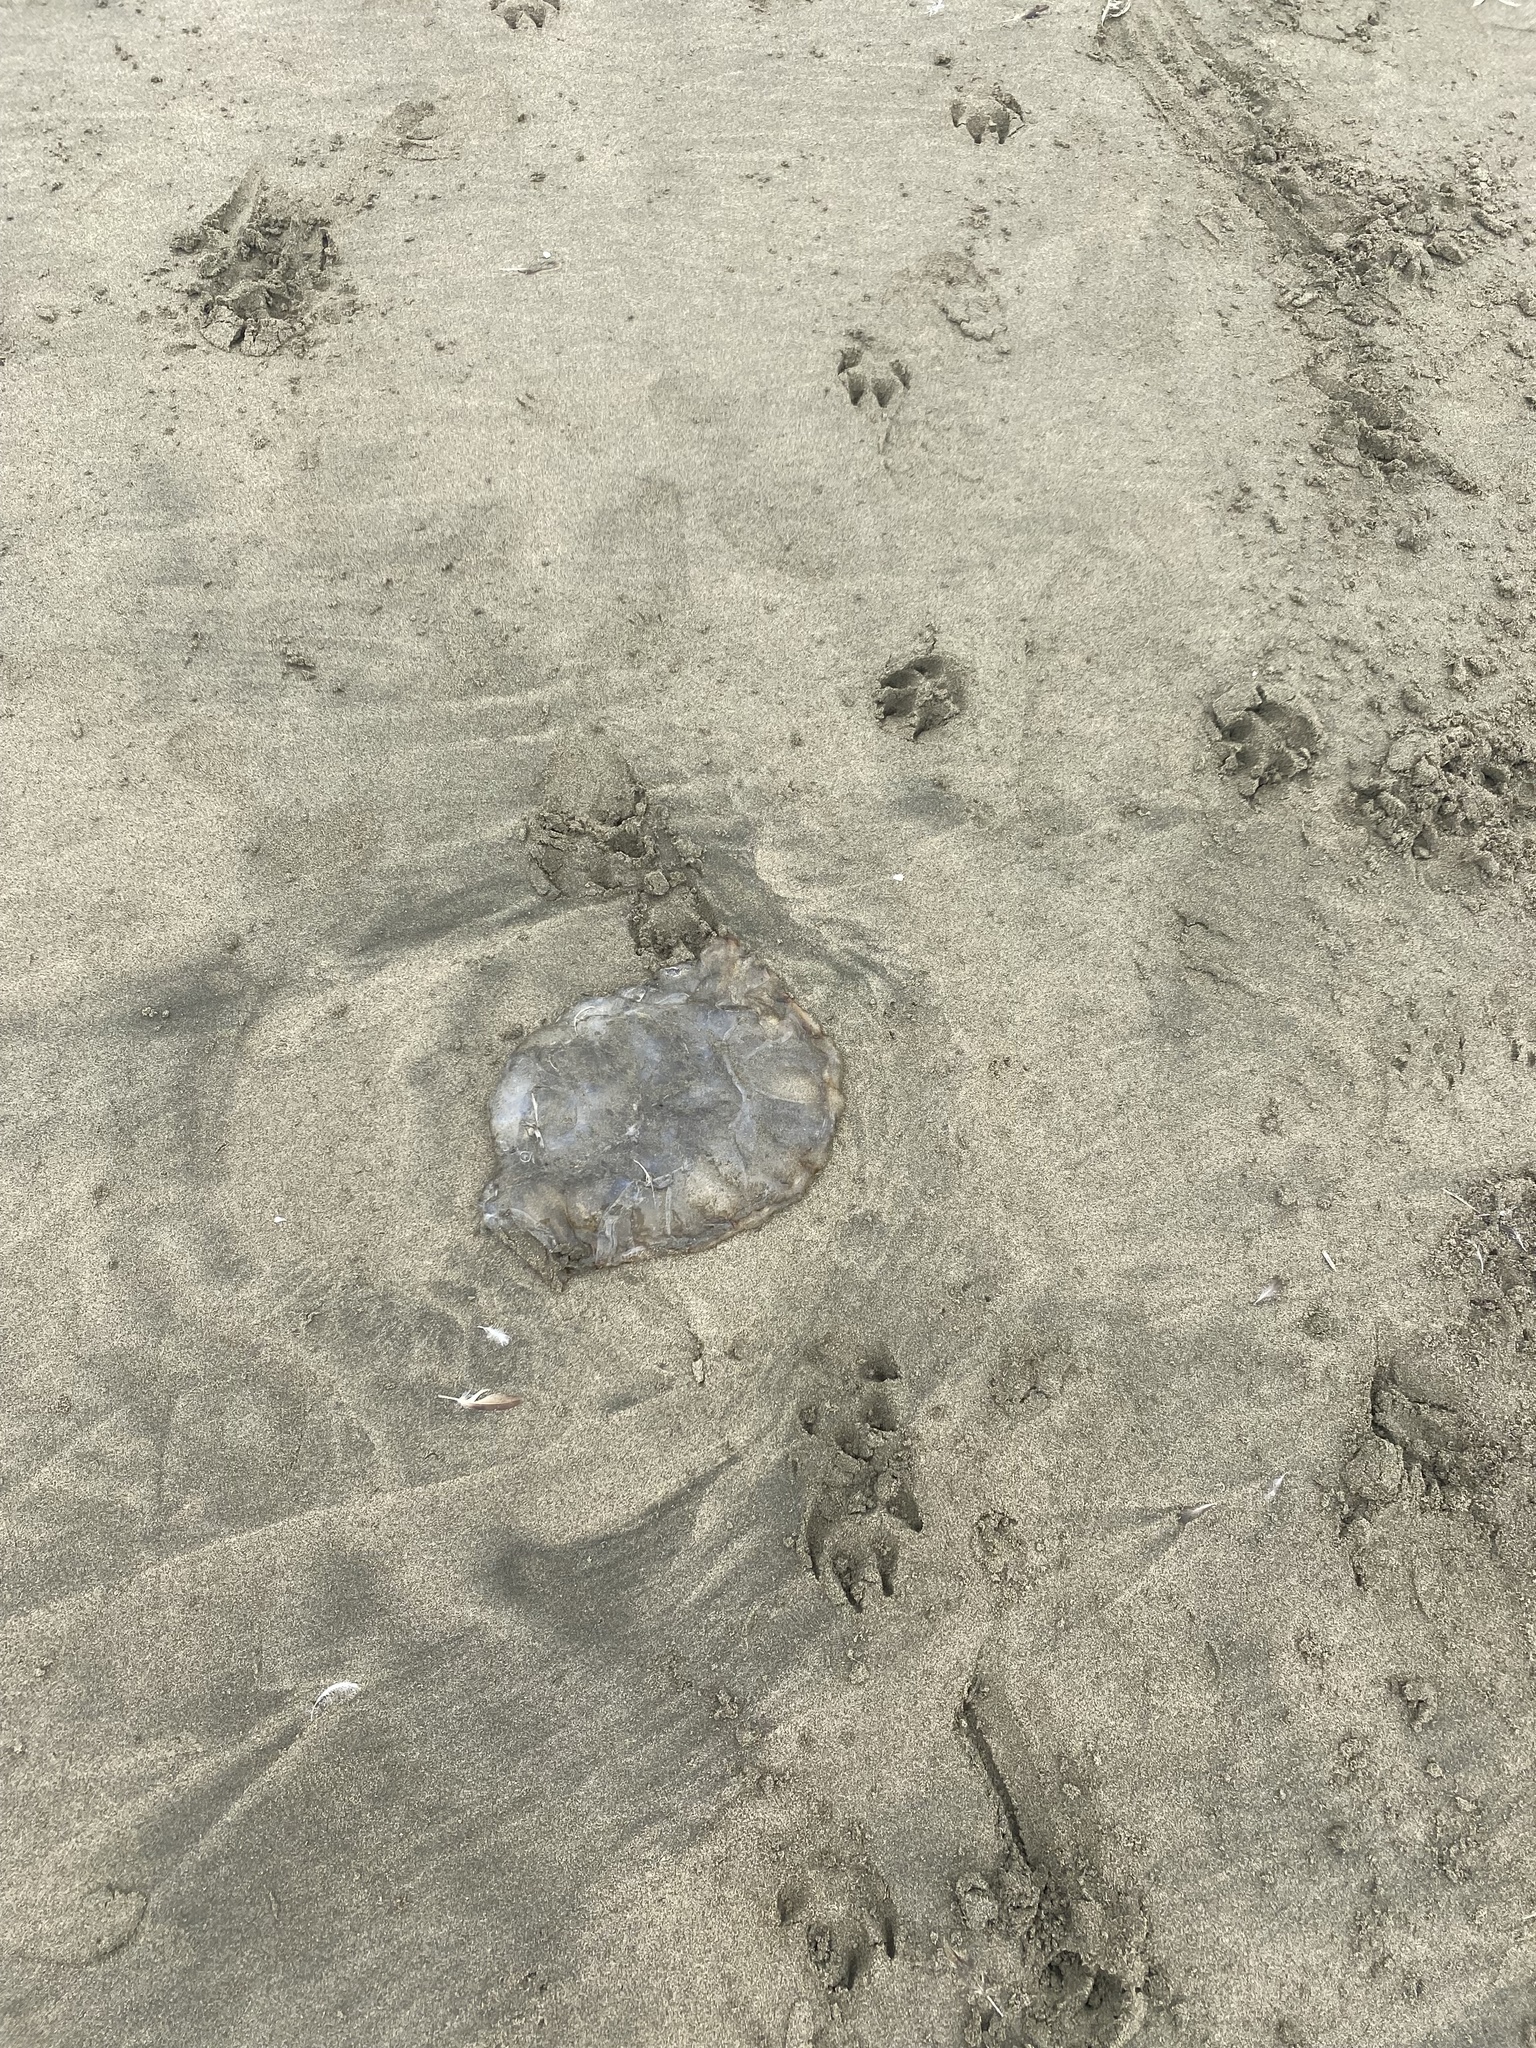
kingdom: Animalia
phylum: Cnidaria
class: Scyphozoa
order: Semaeostomeae
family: Pelagiidae
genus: Chrysaora
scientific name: Chrysaora fuscescens
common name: Sea nettle
